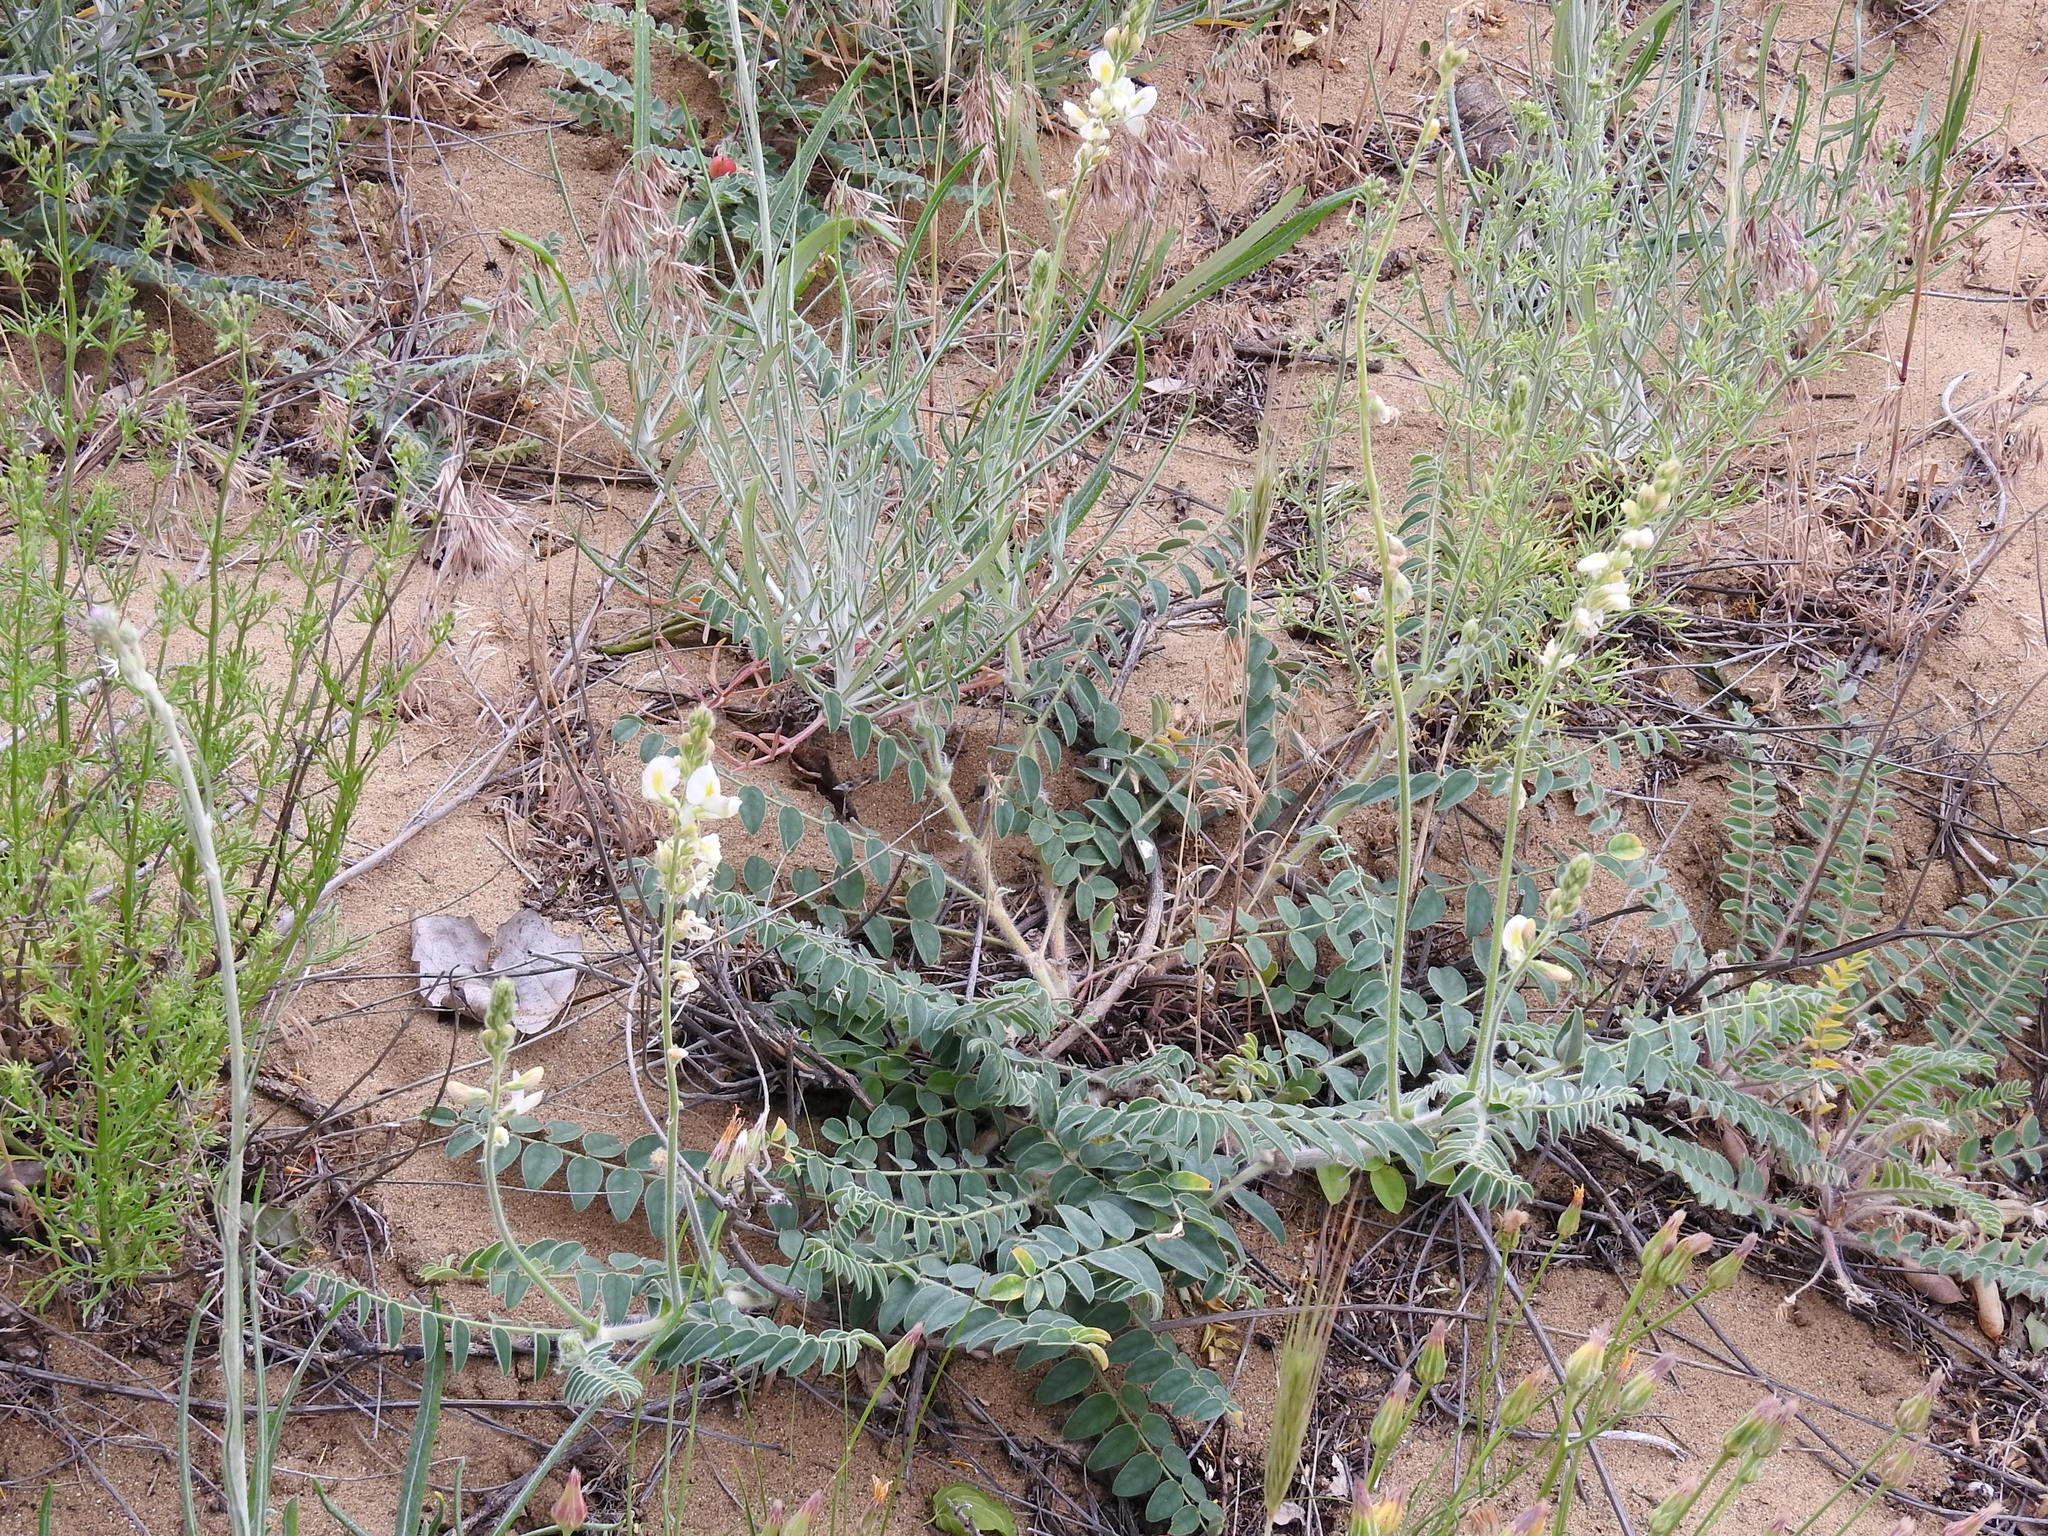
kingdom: Plantae
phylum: Tracheophyta
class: Magnoliopsida
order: Fabales
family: Fabaceae
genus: Onobrychis
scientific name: Onobrychis majorovii
